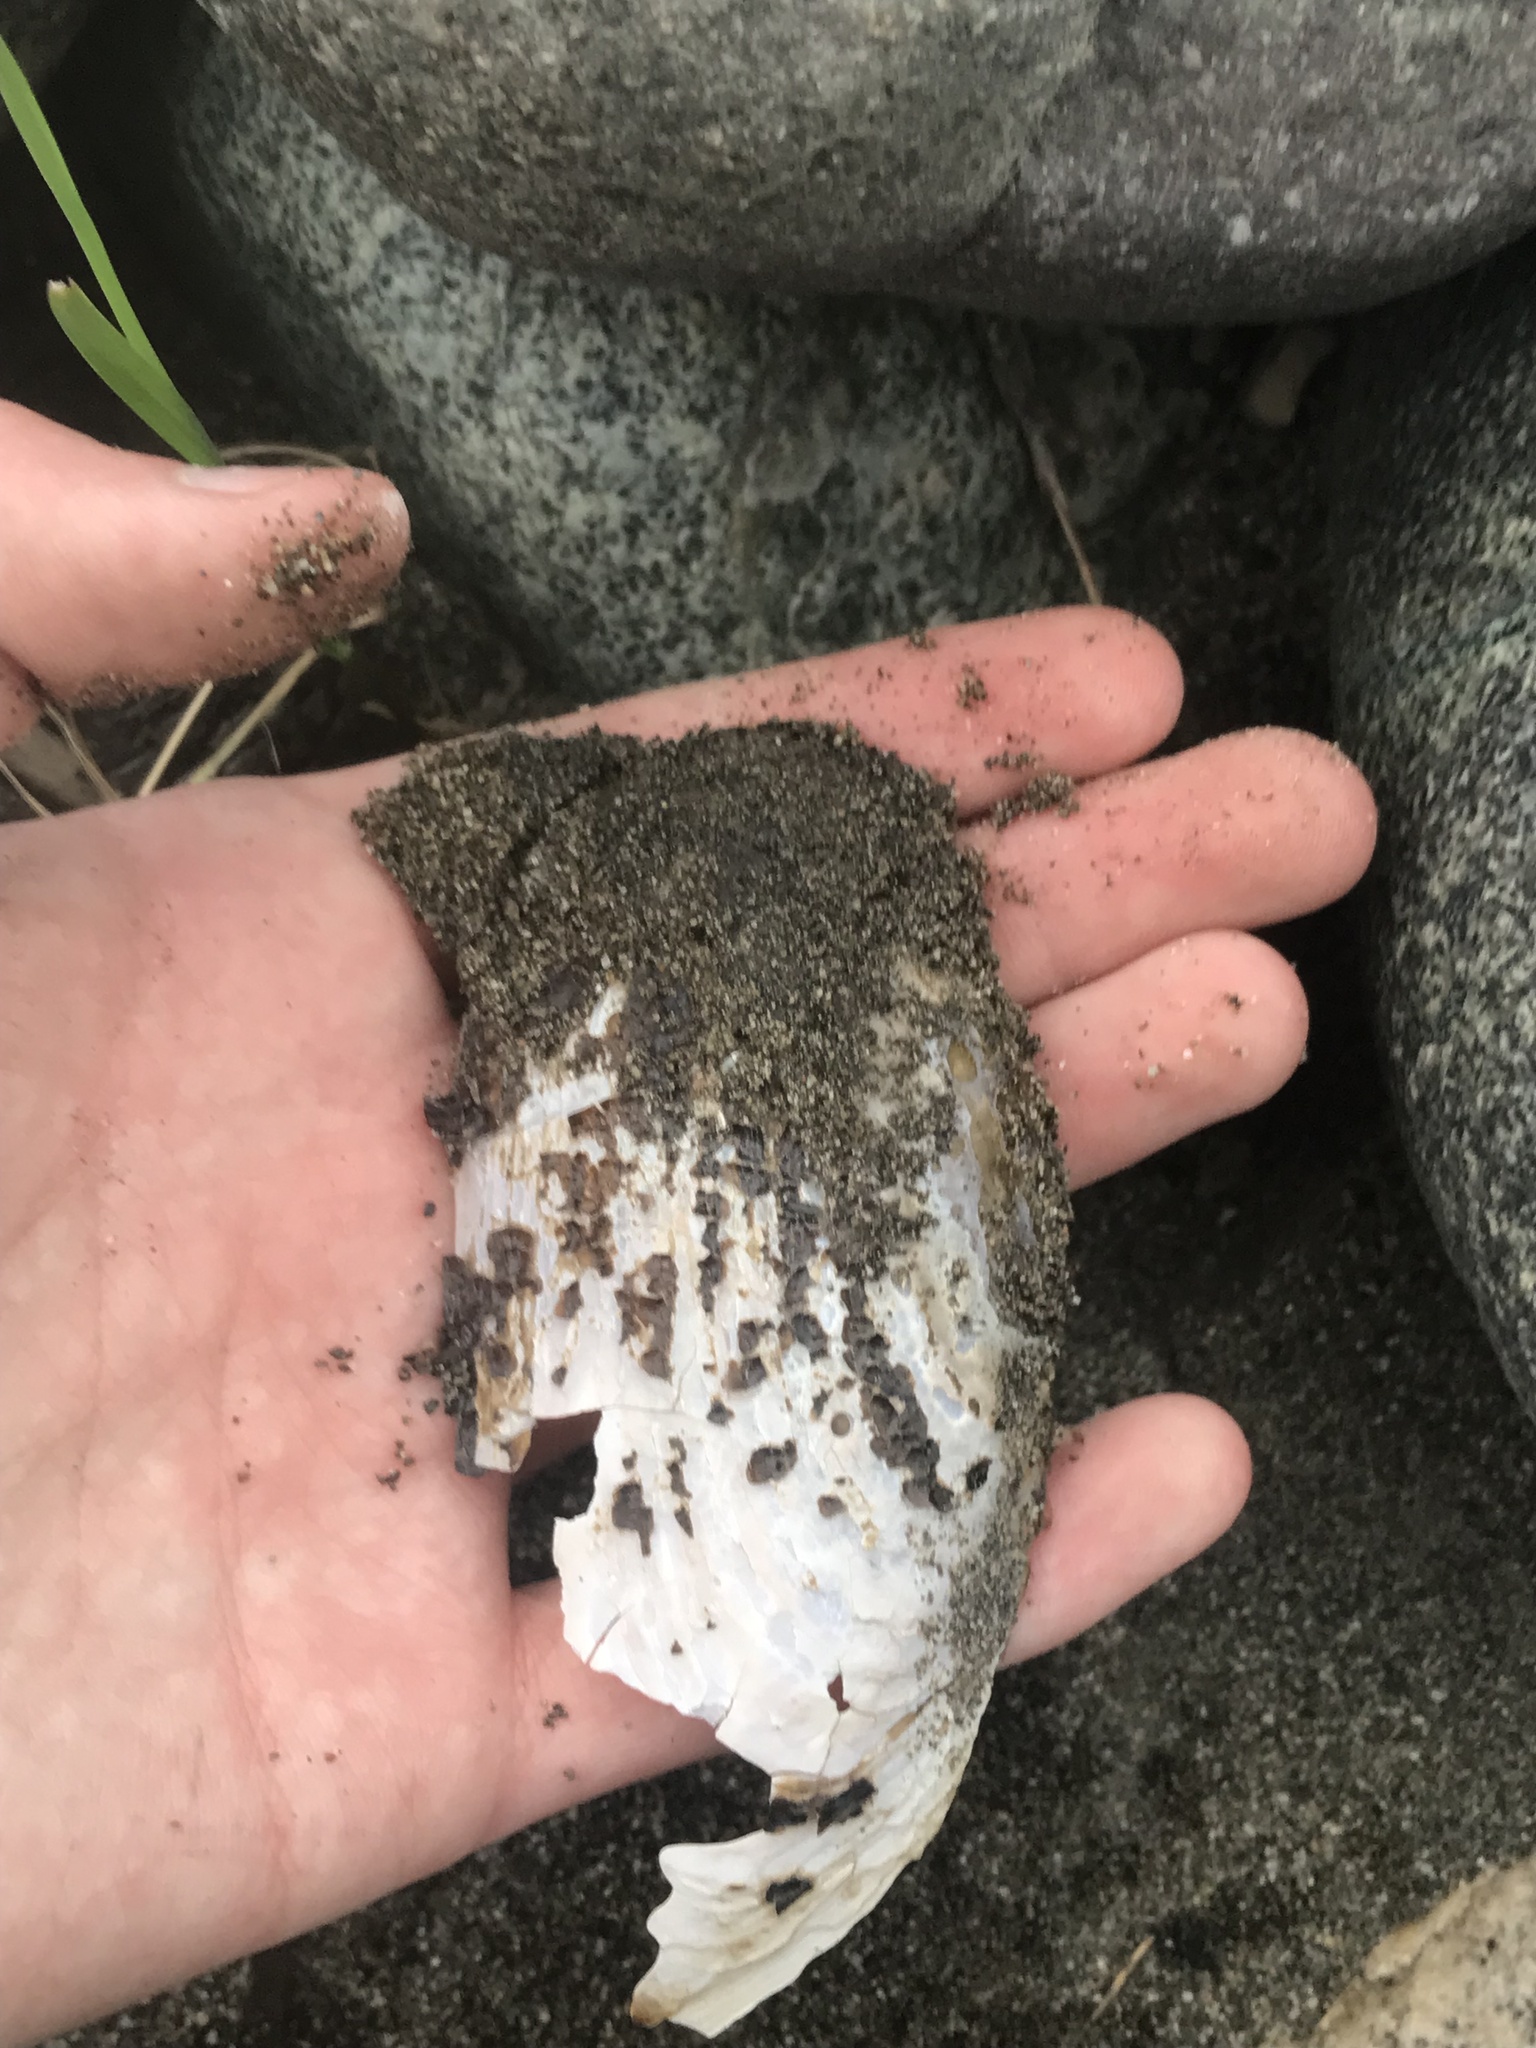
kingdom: Animalia
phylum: Mollusca
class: Bivalvia
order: Unionida
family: Margaritiferidae
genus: Margaritifera
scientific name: Margaritifera falcata
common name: Western pearlshell
